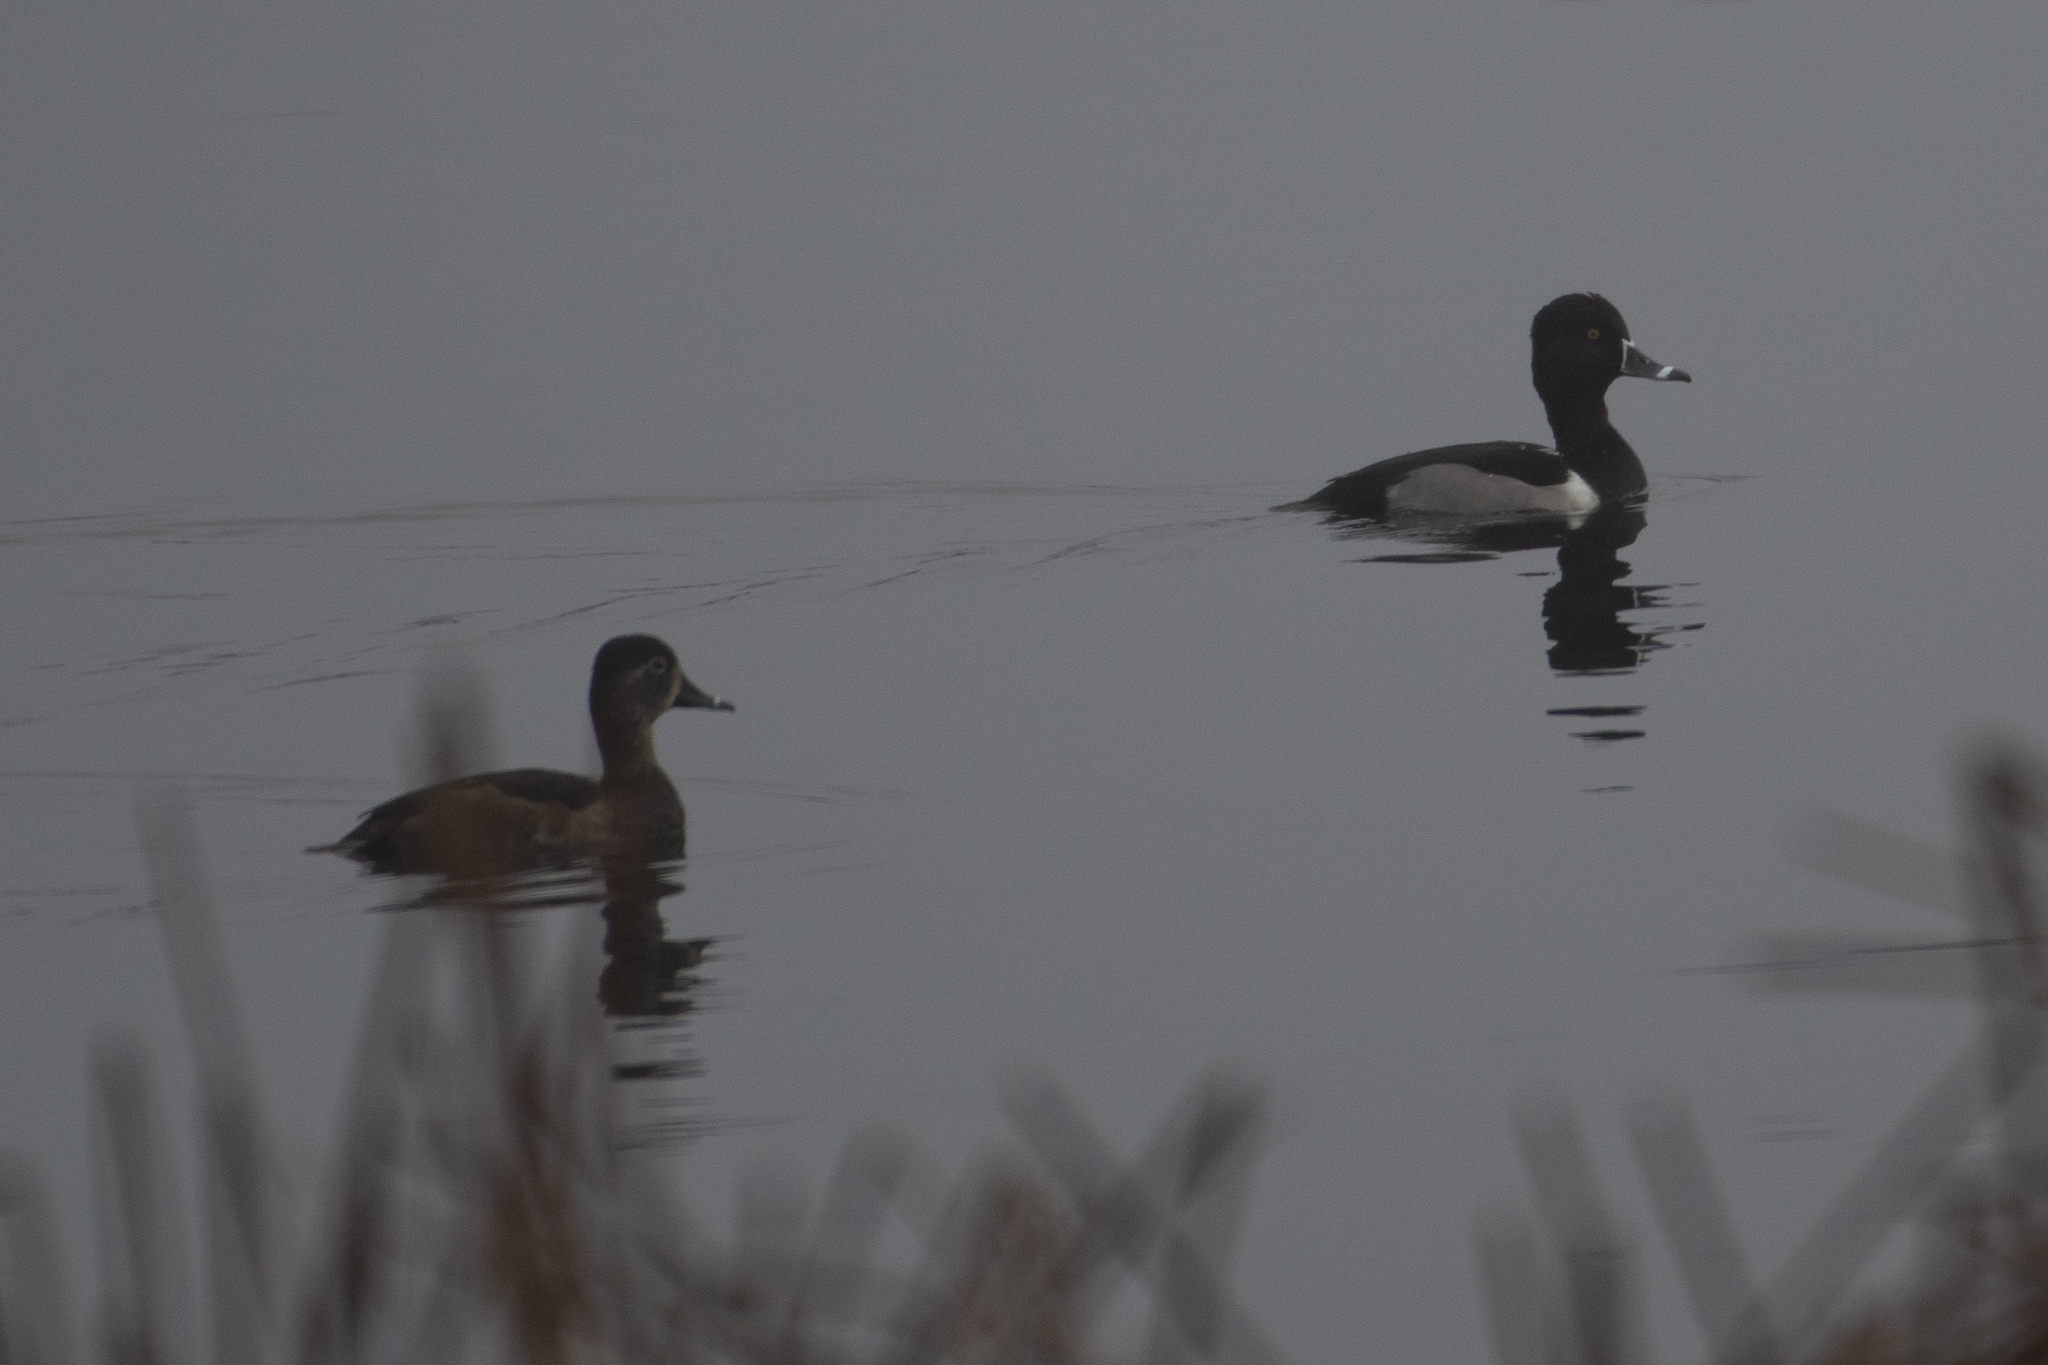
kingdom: Animalia
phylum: Chordata
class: Aves
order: Anseriformes
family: Anatidae
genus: Aythya
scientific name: Aythya collaris
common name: Ring-necked duck
